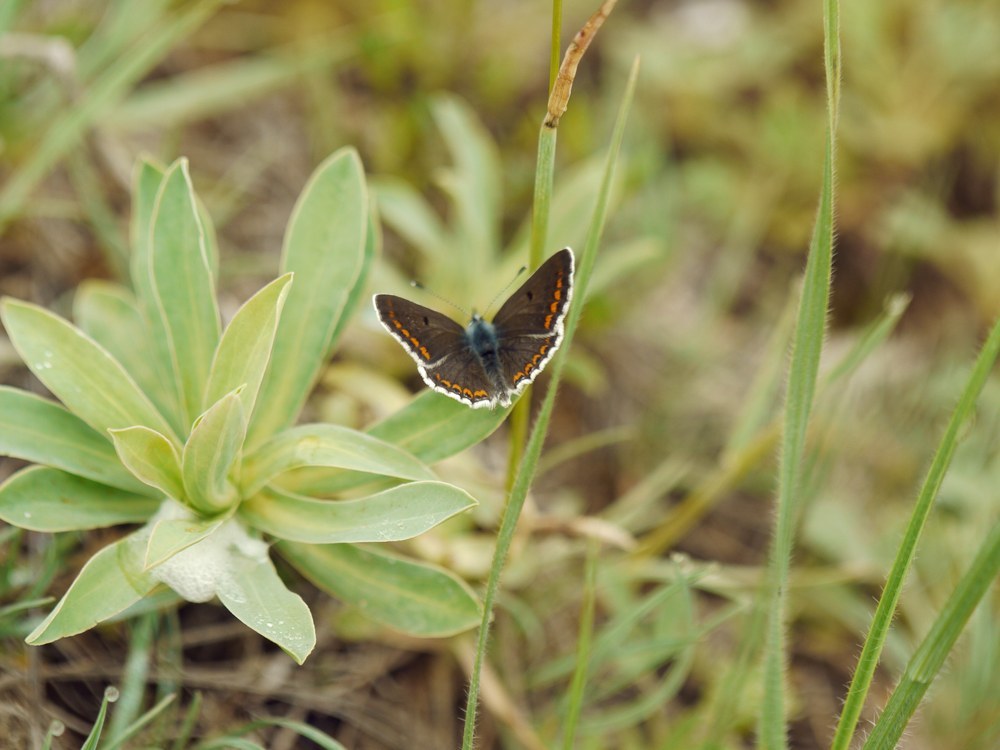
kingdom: Animalia
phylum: Arthropoda
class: Insecta
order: Lepidoptera
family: Lycaenidae
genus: Aricia
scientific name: Aricia agestis
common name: Brown argus
